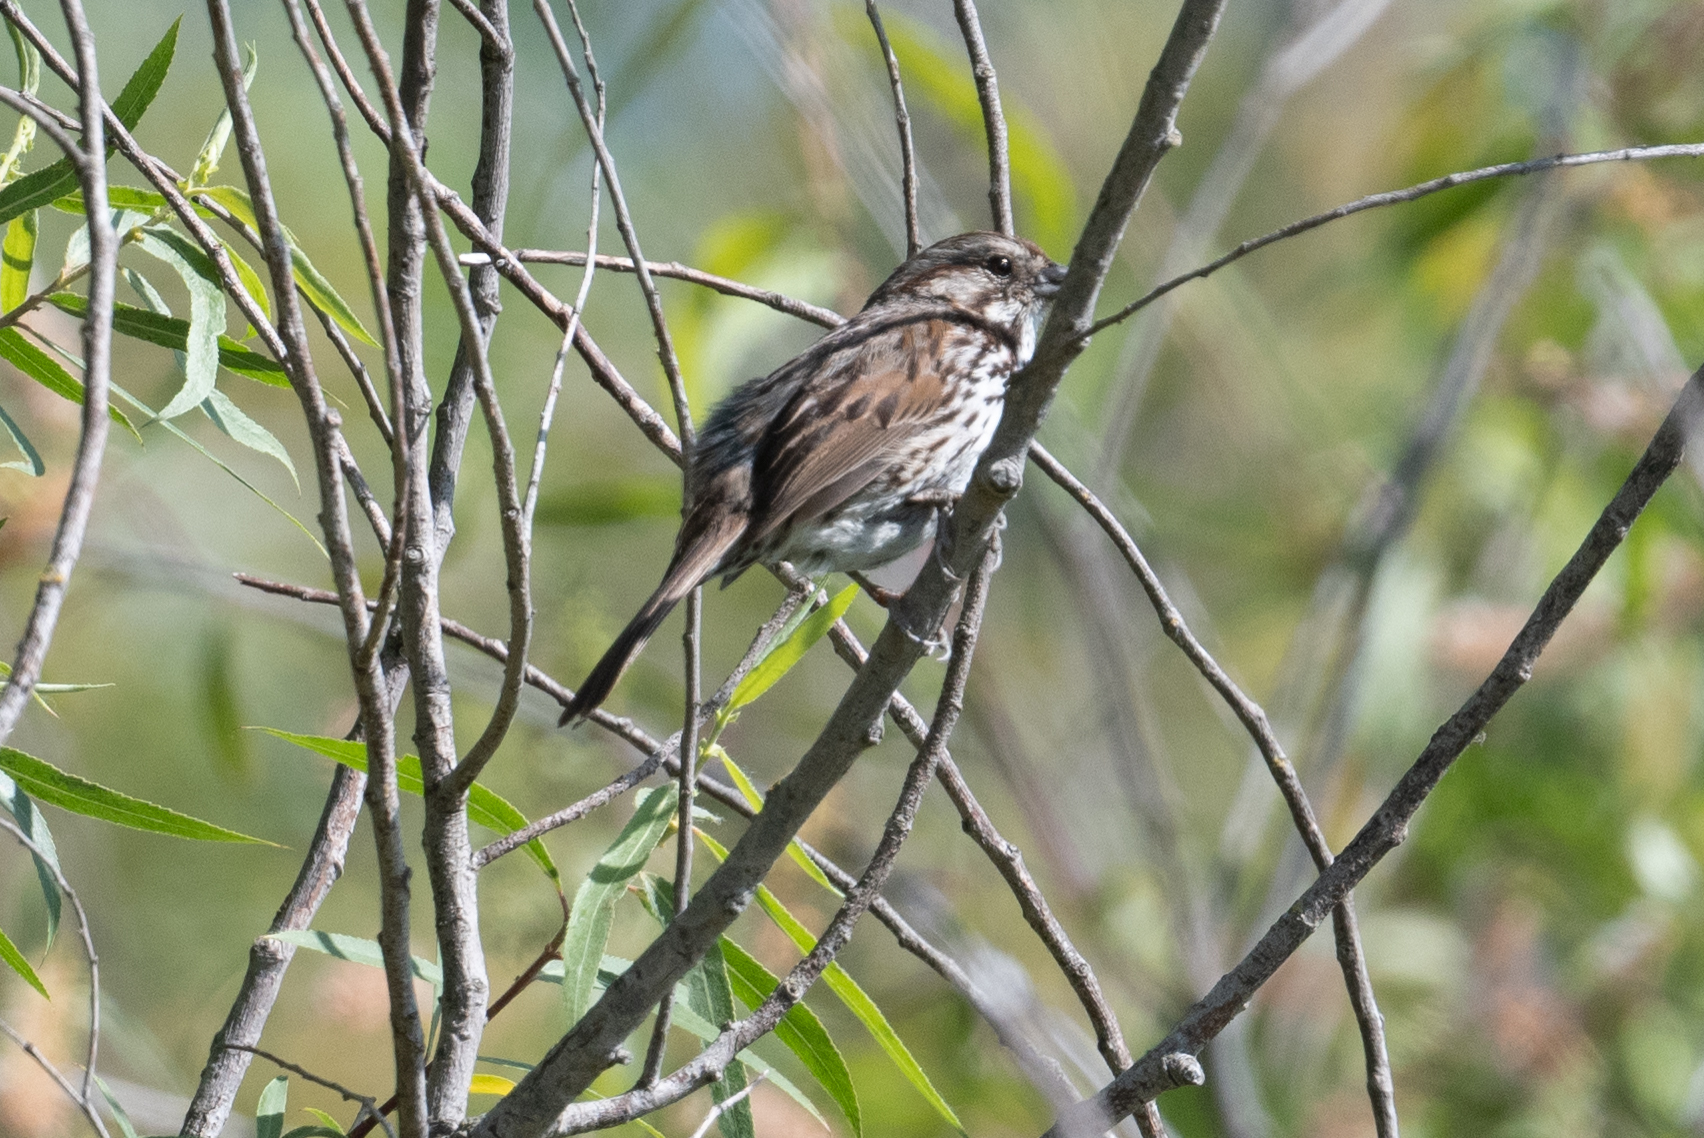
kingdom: Animalia
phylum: Chordata
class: Aves
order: Passeriformes
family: Passerellidae
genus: Melospiza
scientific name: Melospiza melodia
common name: Song sparrow
